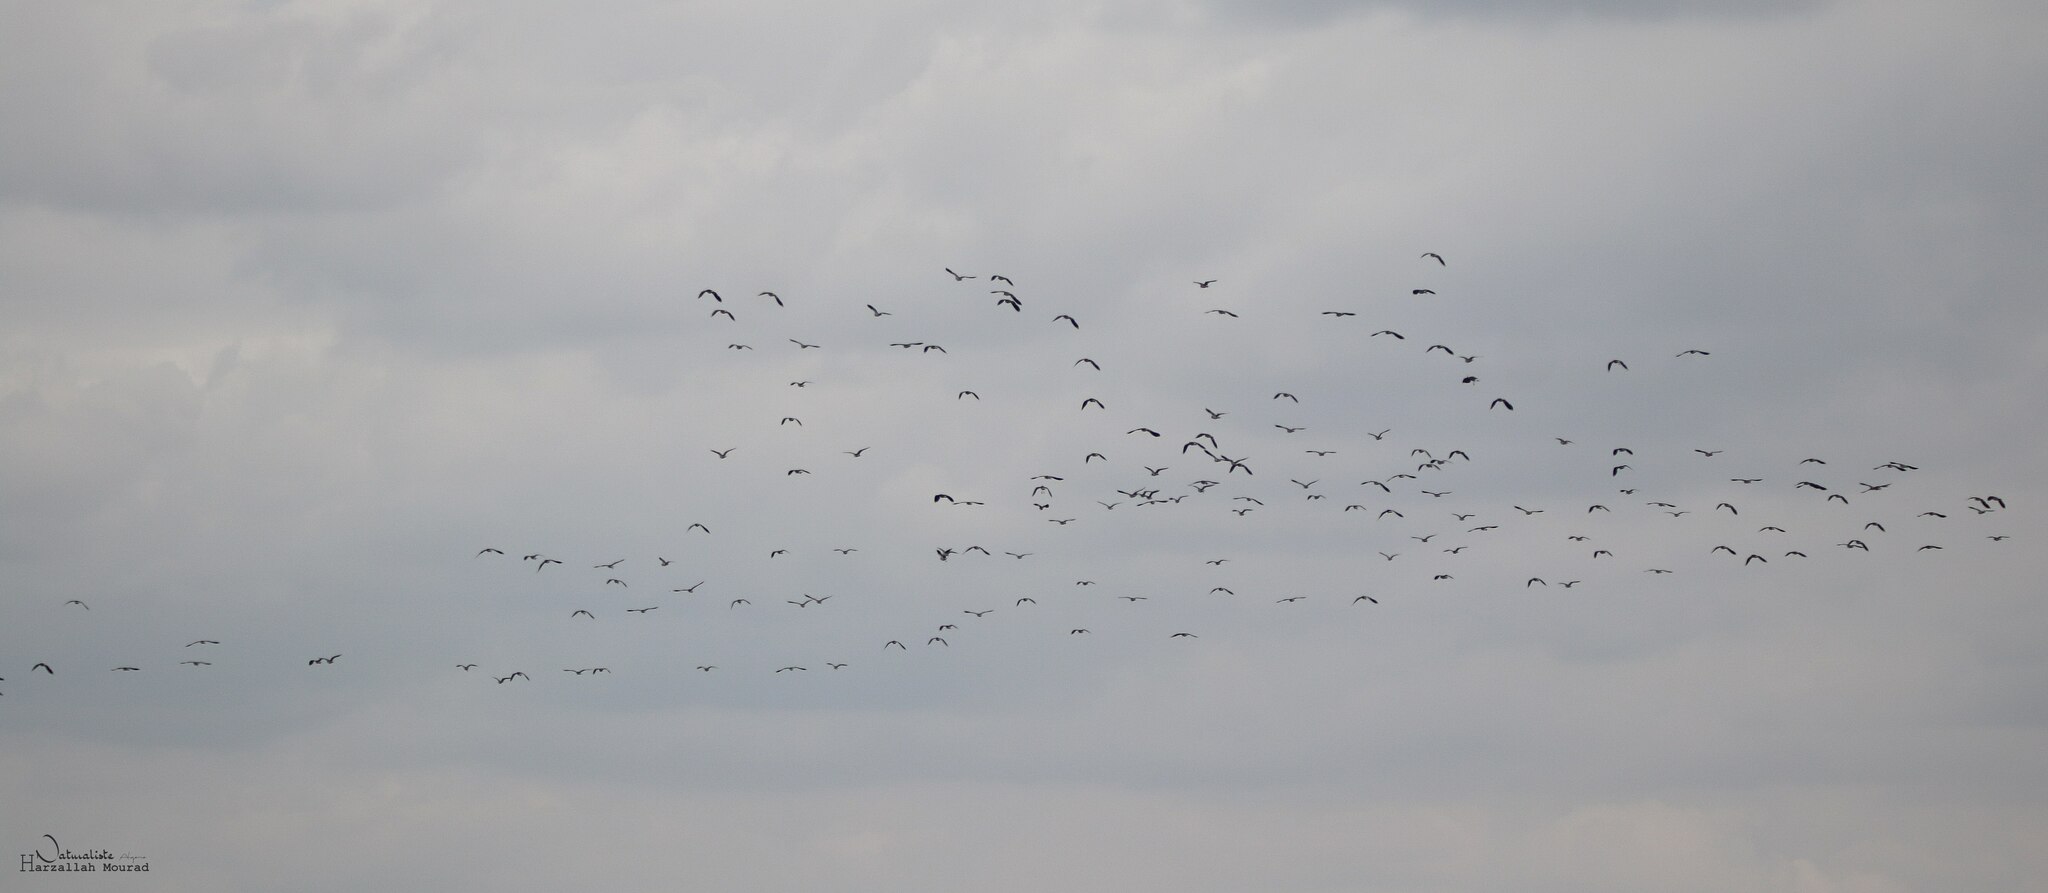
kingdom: Animalia
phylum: Chordata
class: Aves
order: Charadriiformes
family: Charadriidae
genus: Vanellus
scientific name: Vanellus vanellus
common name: Northern lapwing
